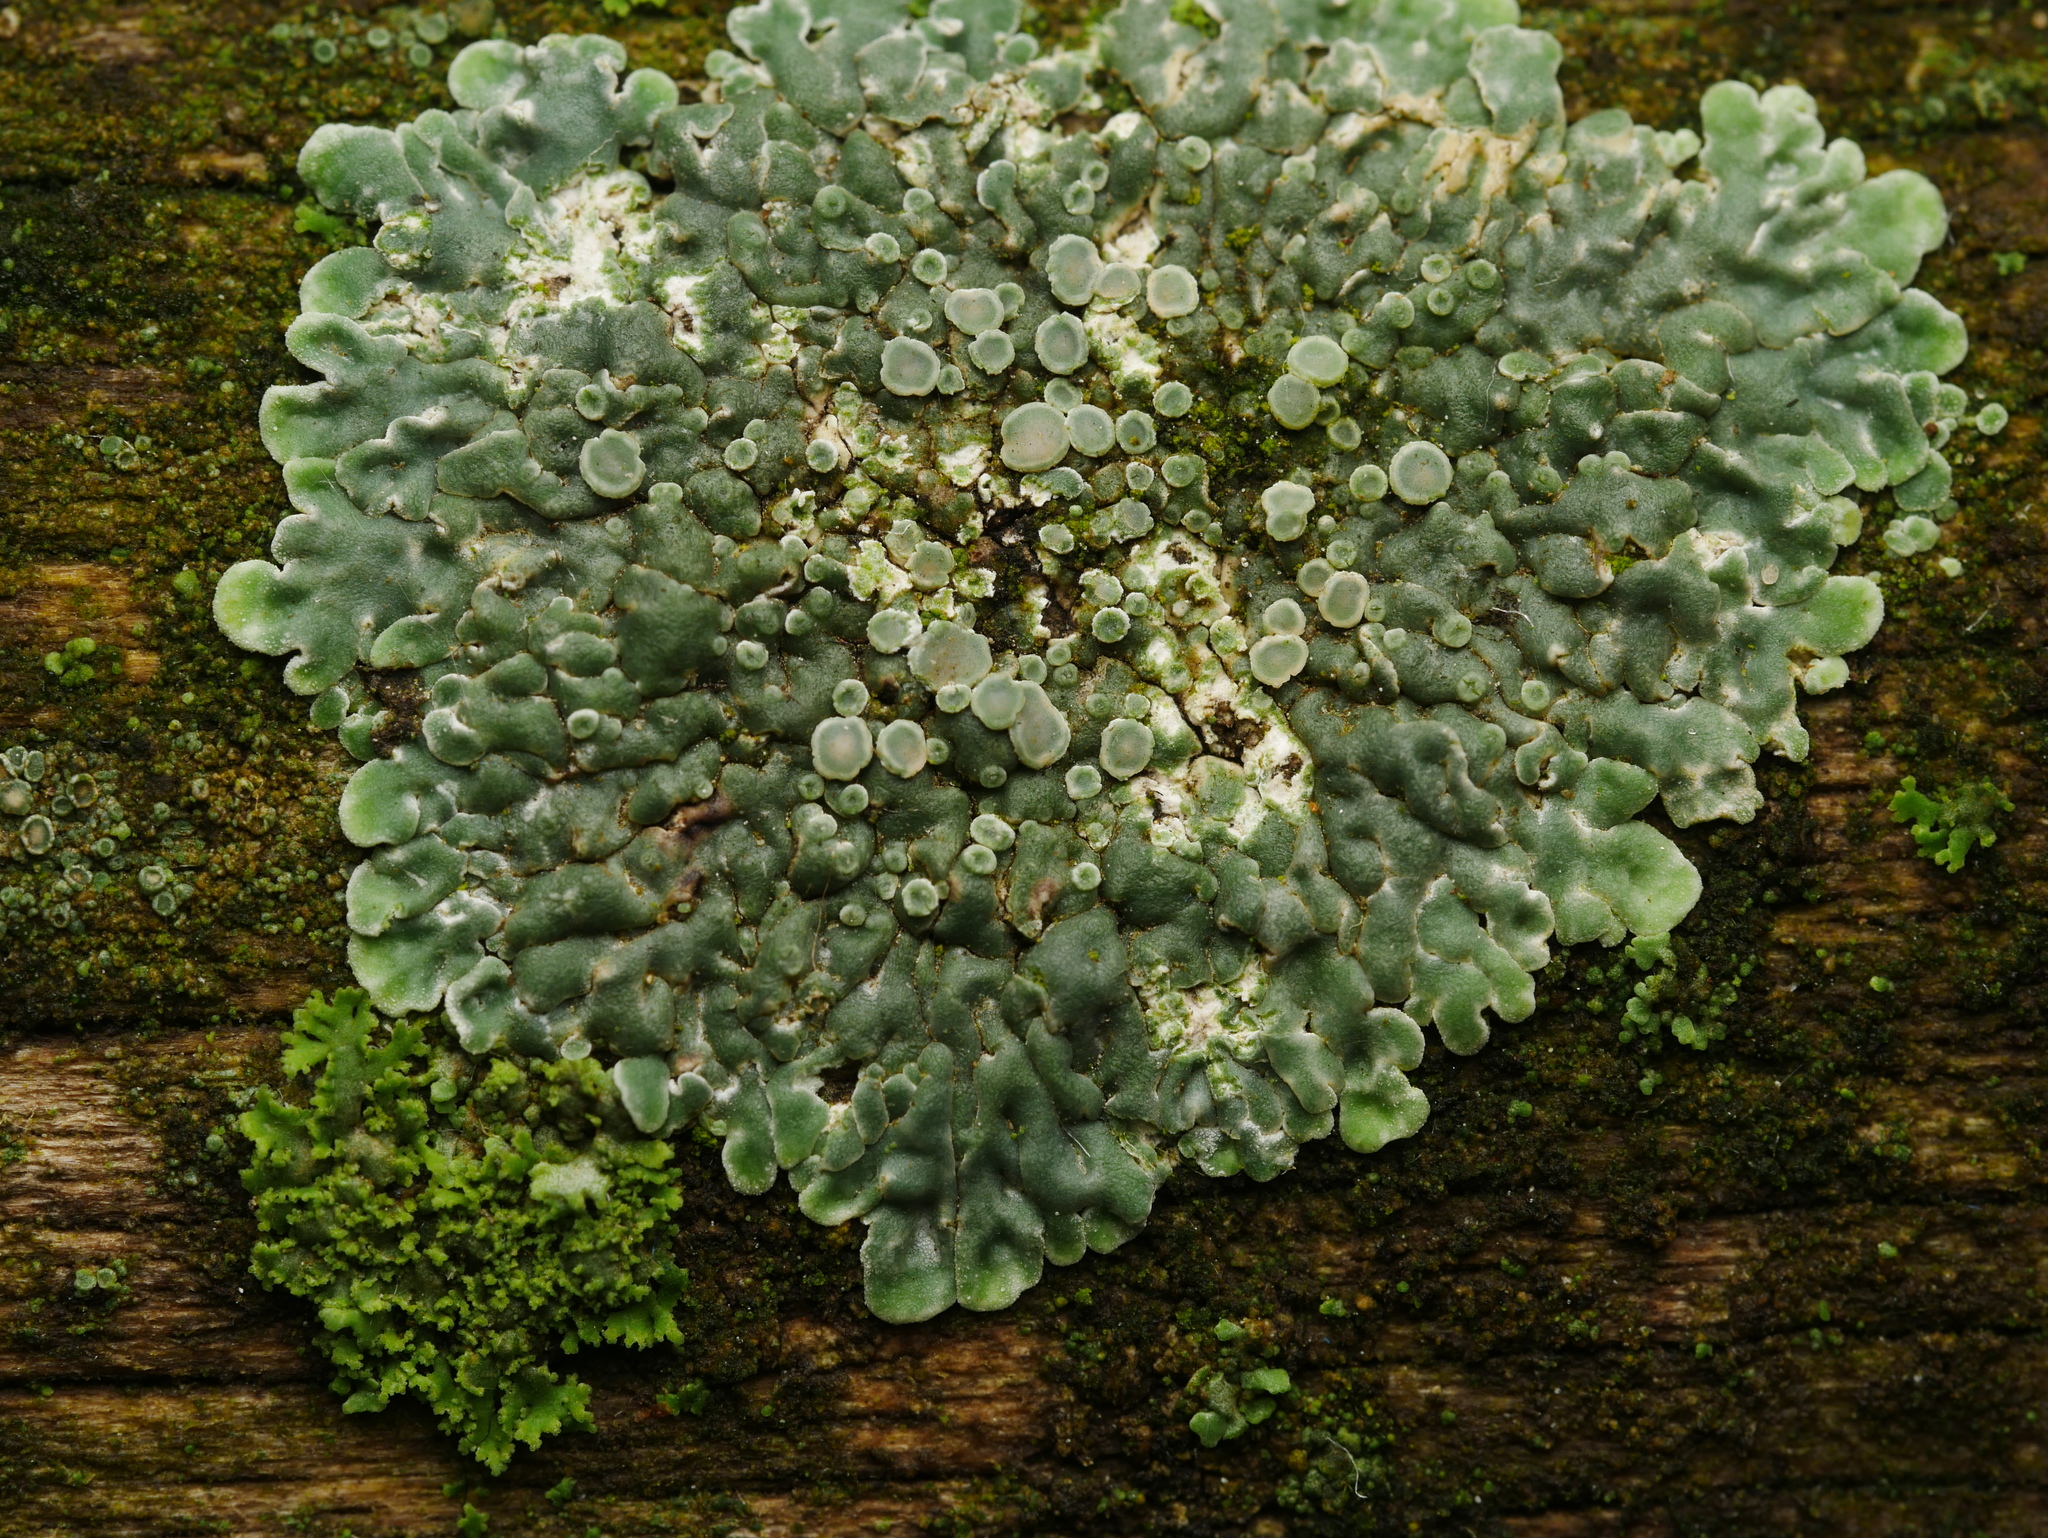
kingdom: Fungi
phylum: Ascomycota
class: Lecanoromycetes
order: Lecanorales
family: Lecanoraceae
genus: Protoparmeliopsis
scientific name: Protoparmeliopsis muralis
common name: Stonewall rim lichen
